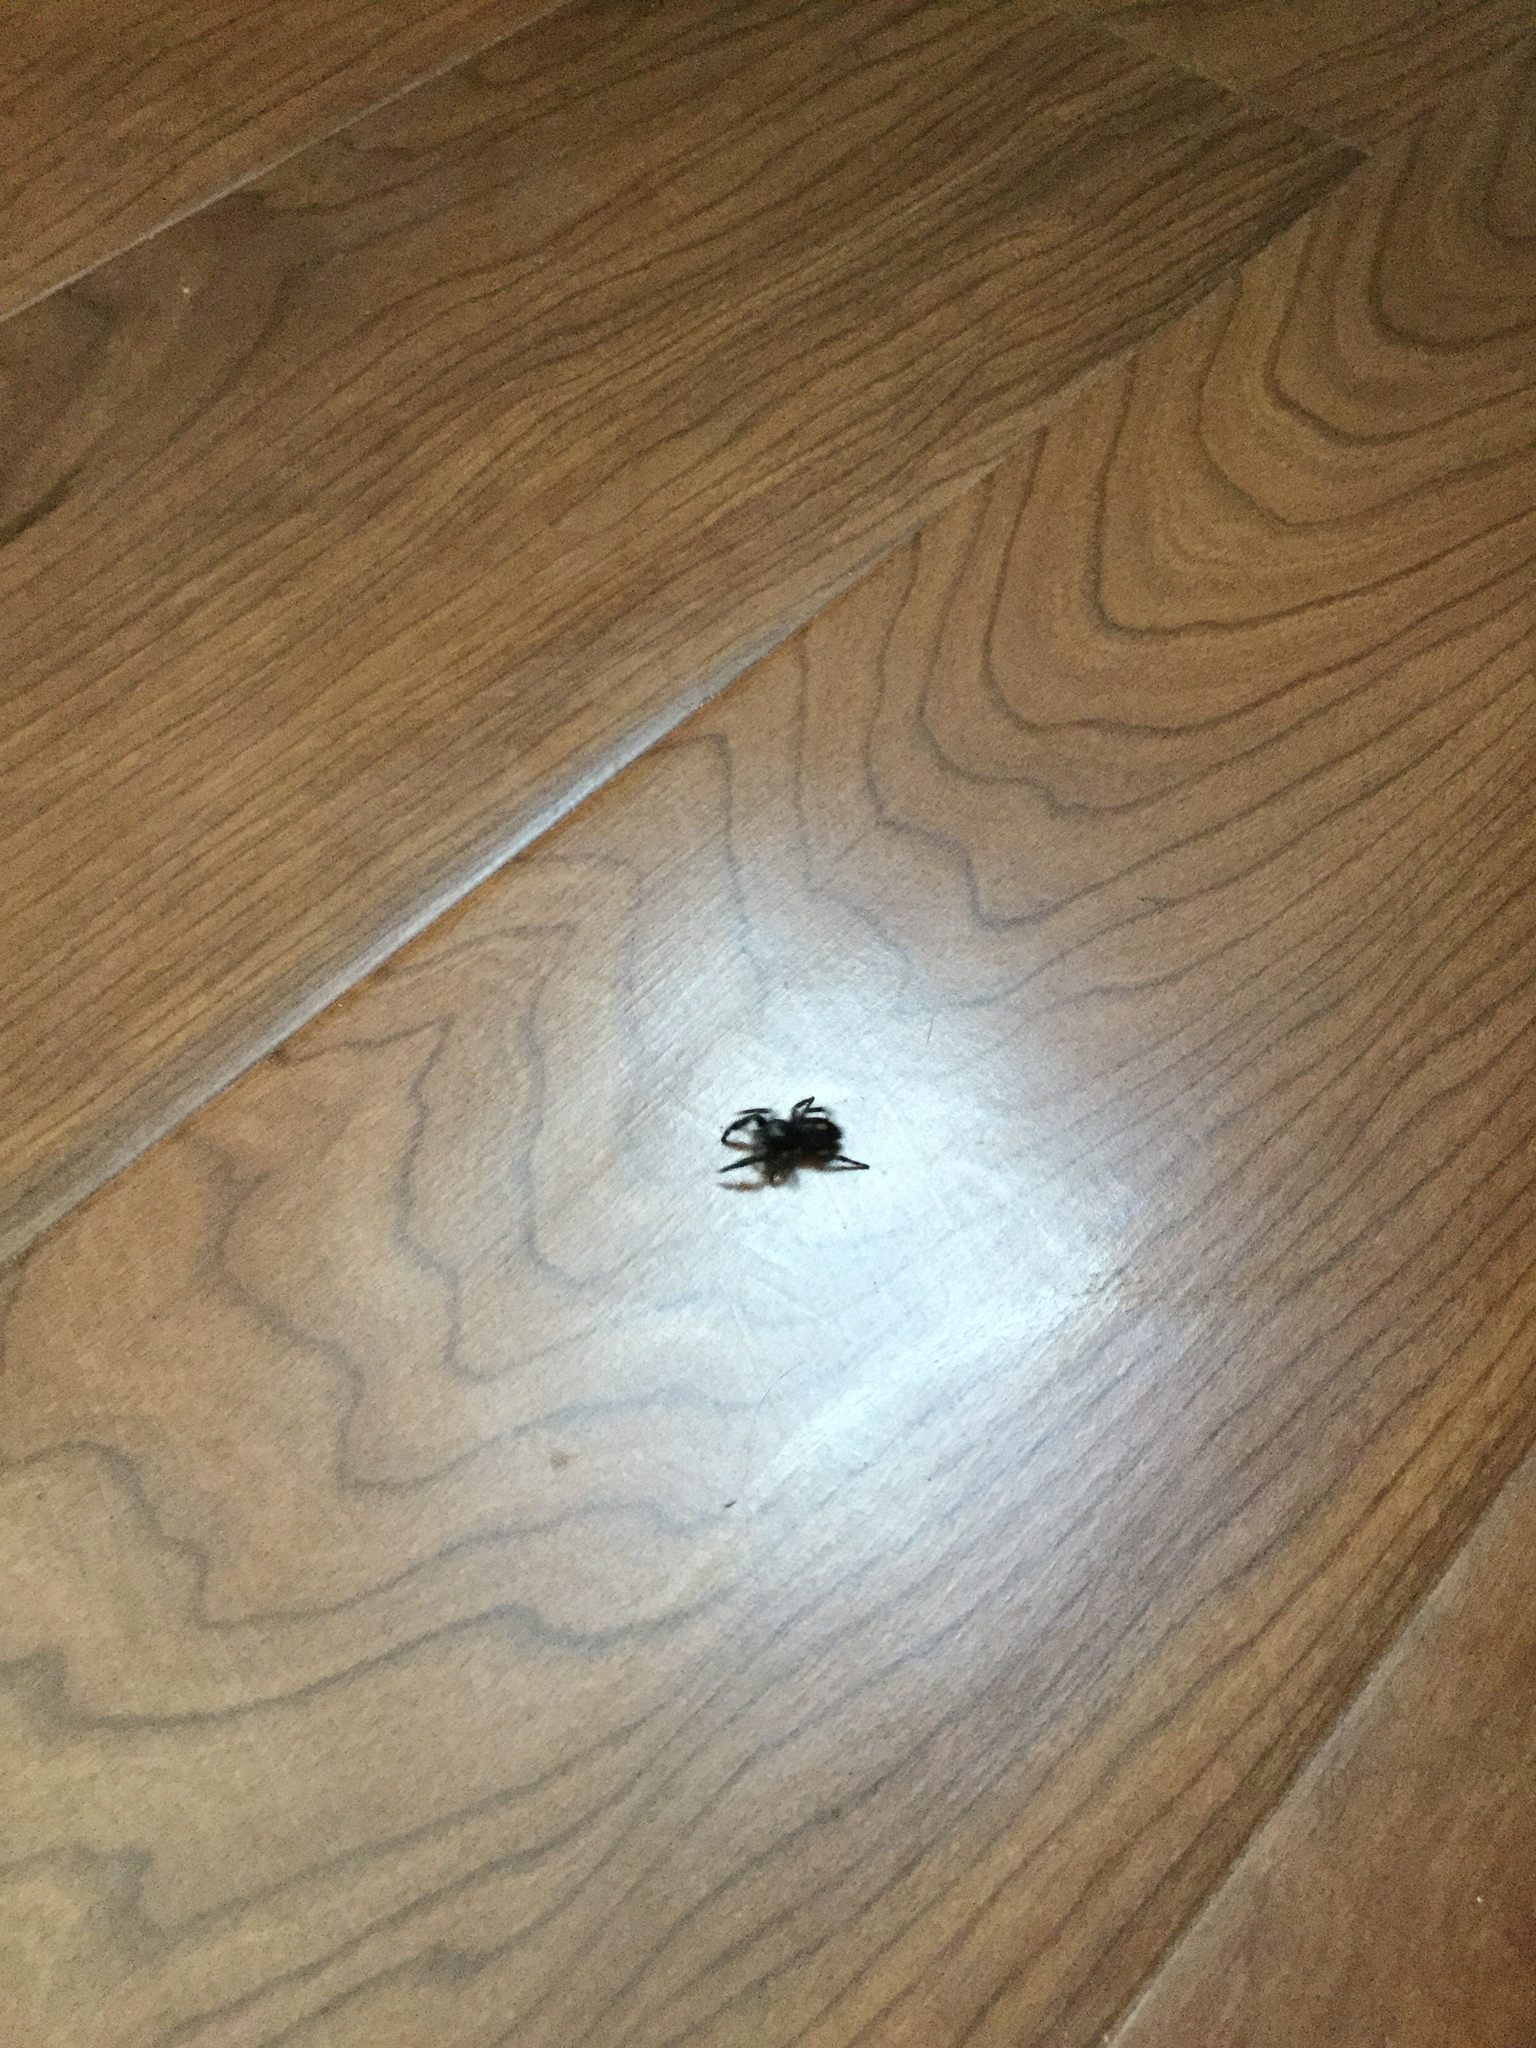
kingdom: Animalia
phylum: Arthropoda
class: Arachnida
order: Araneae
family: Salticidae
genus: Phidippus
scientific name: Phidippus audax
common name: Bold jumper
